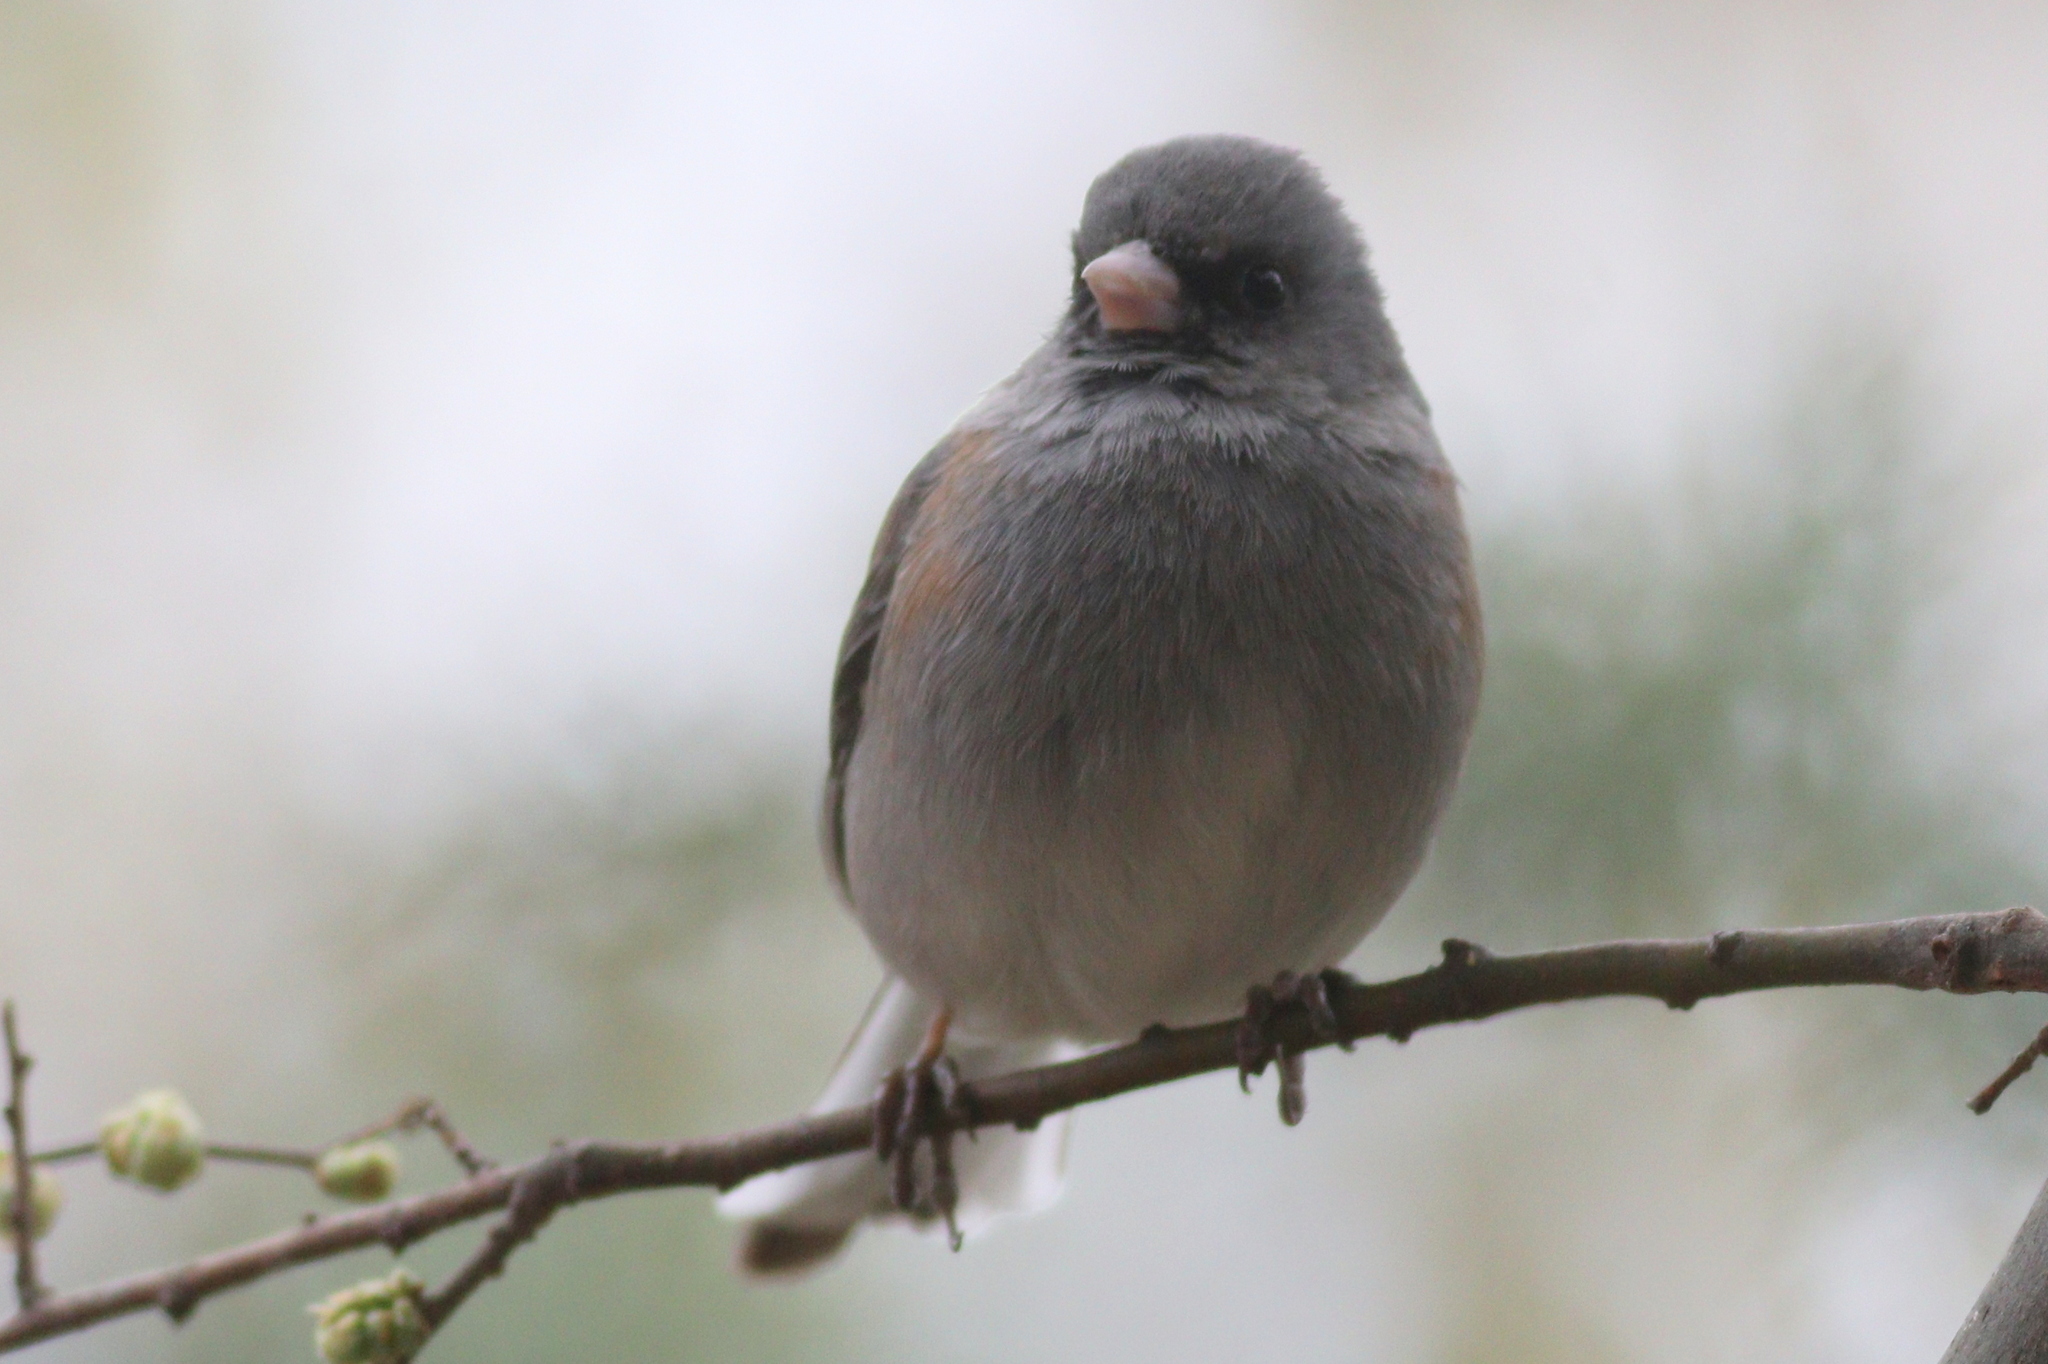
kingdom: Animalia
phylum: Chordata
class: Aves
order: Passeriformes
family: Passerellidae
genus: Junco
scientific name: Junco hyemalis
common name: Dark-eyed junco
